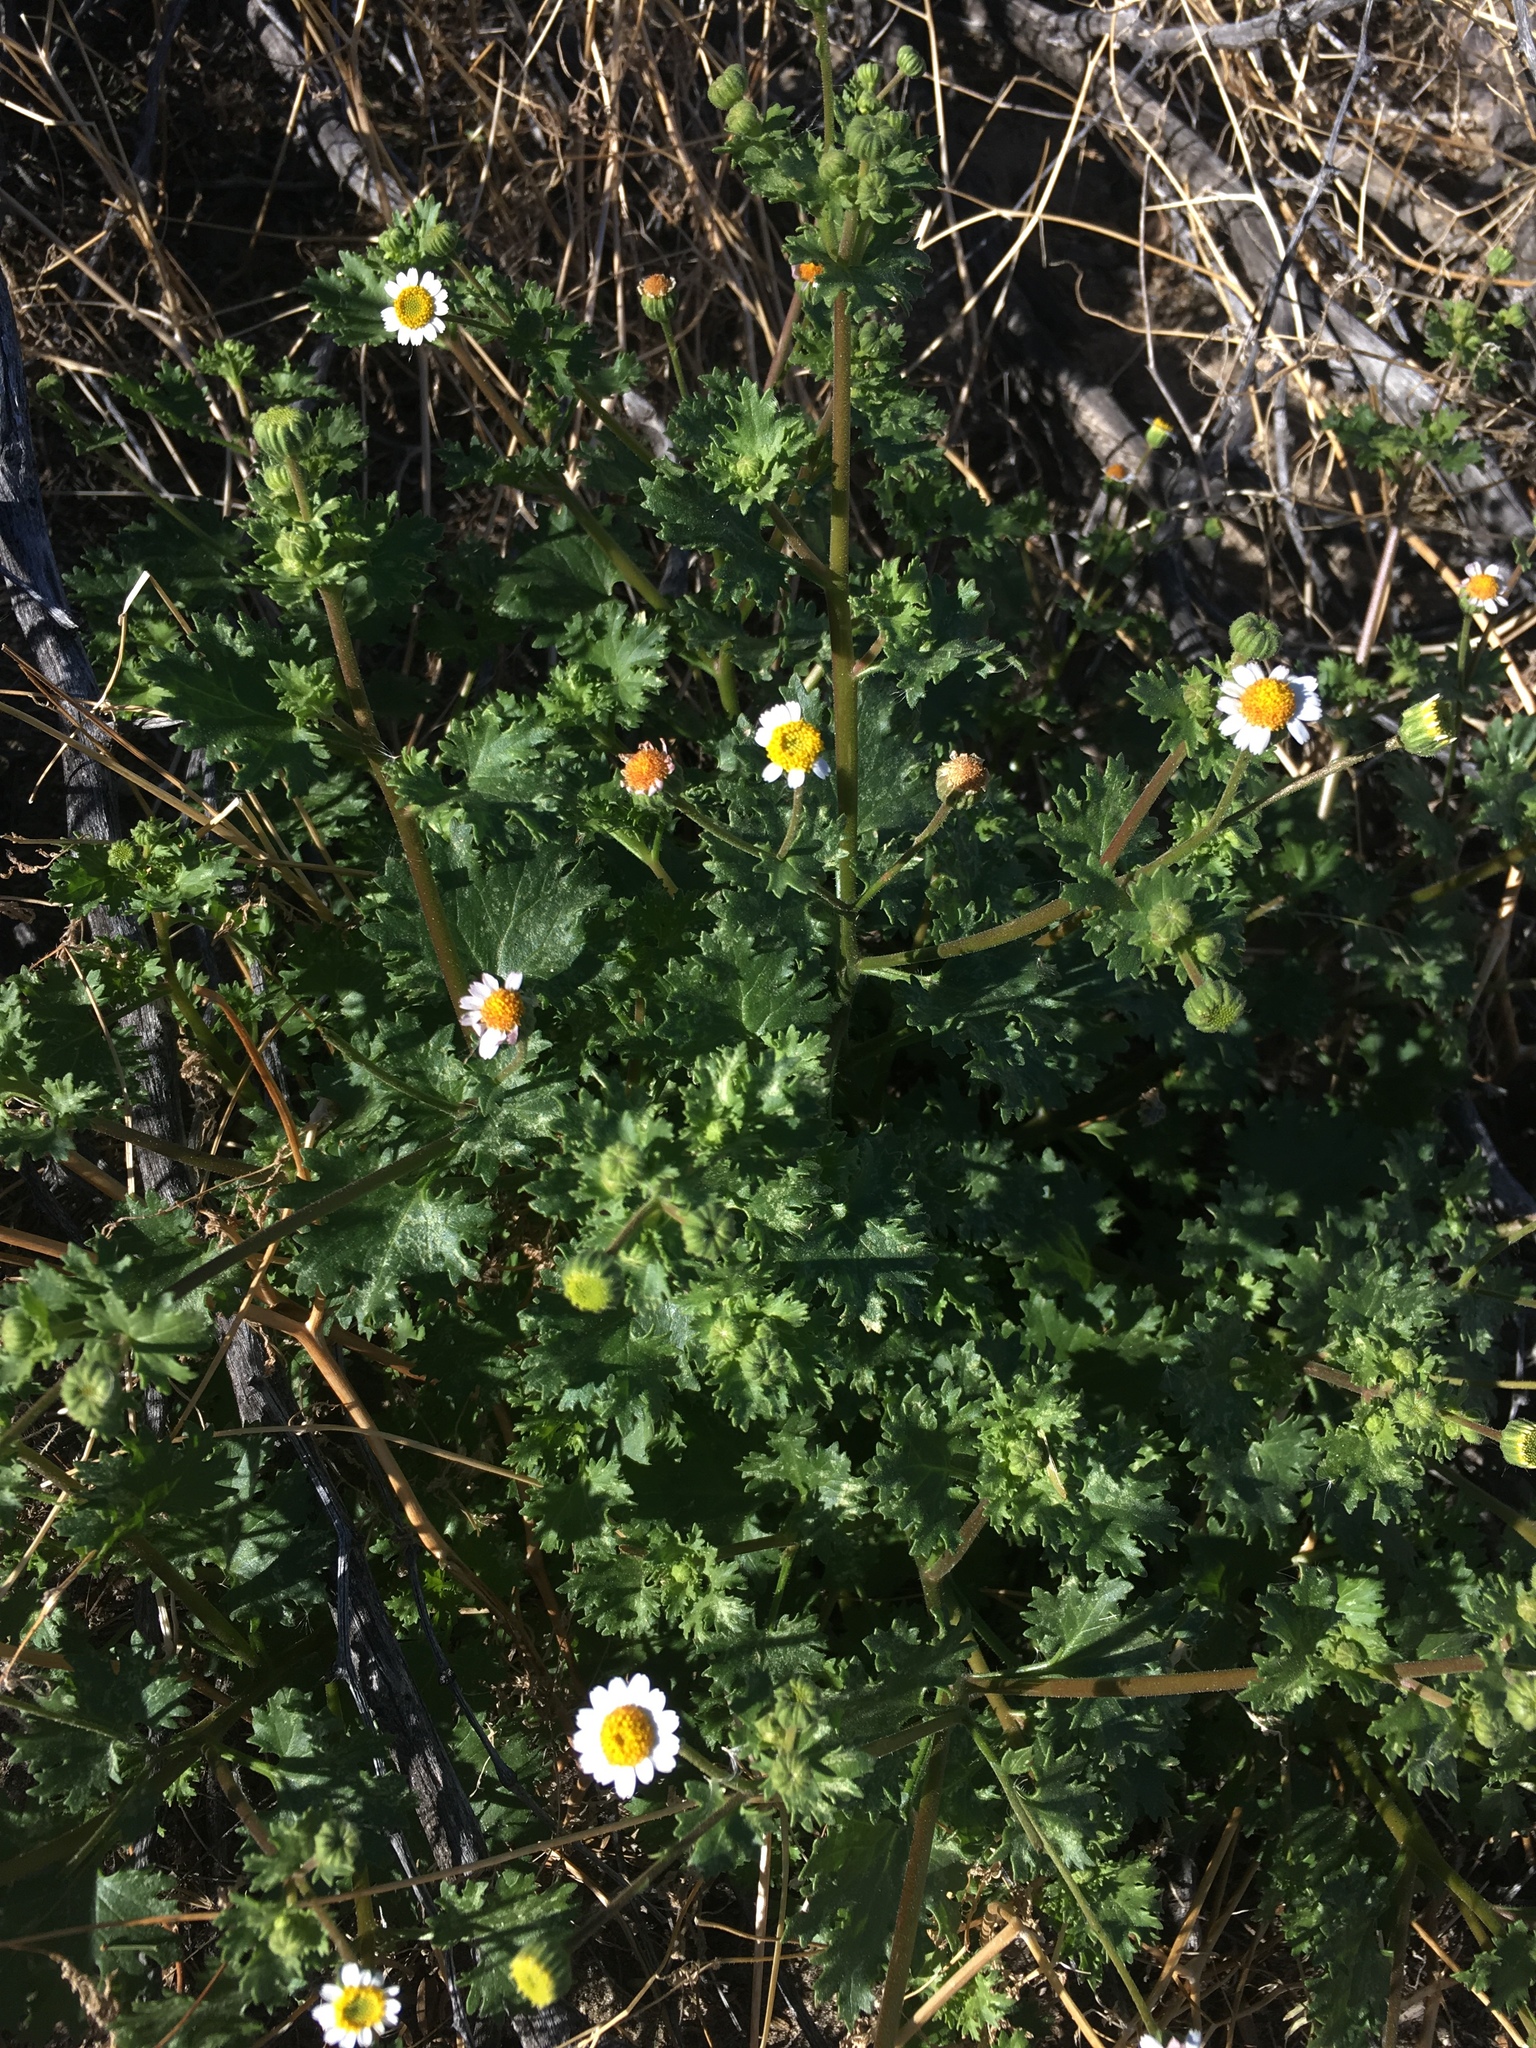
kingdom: Plantae
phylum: Tracheophyta
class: Magnoliopsida
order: Asterales
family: Asteraceae
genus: Laphamia
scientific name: Laphamia emoryi
